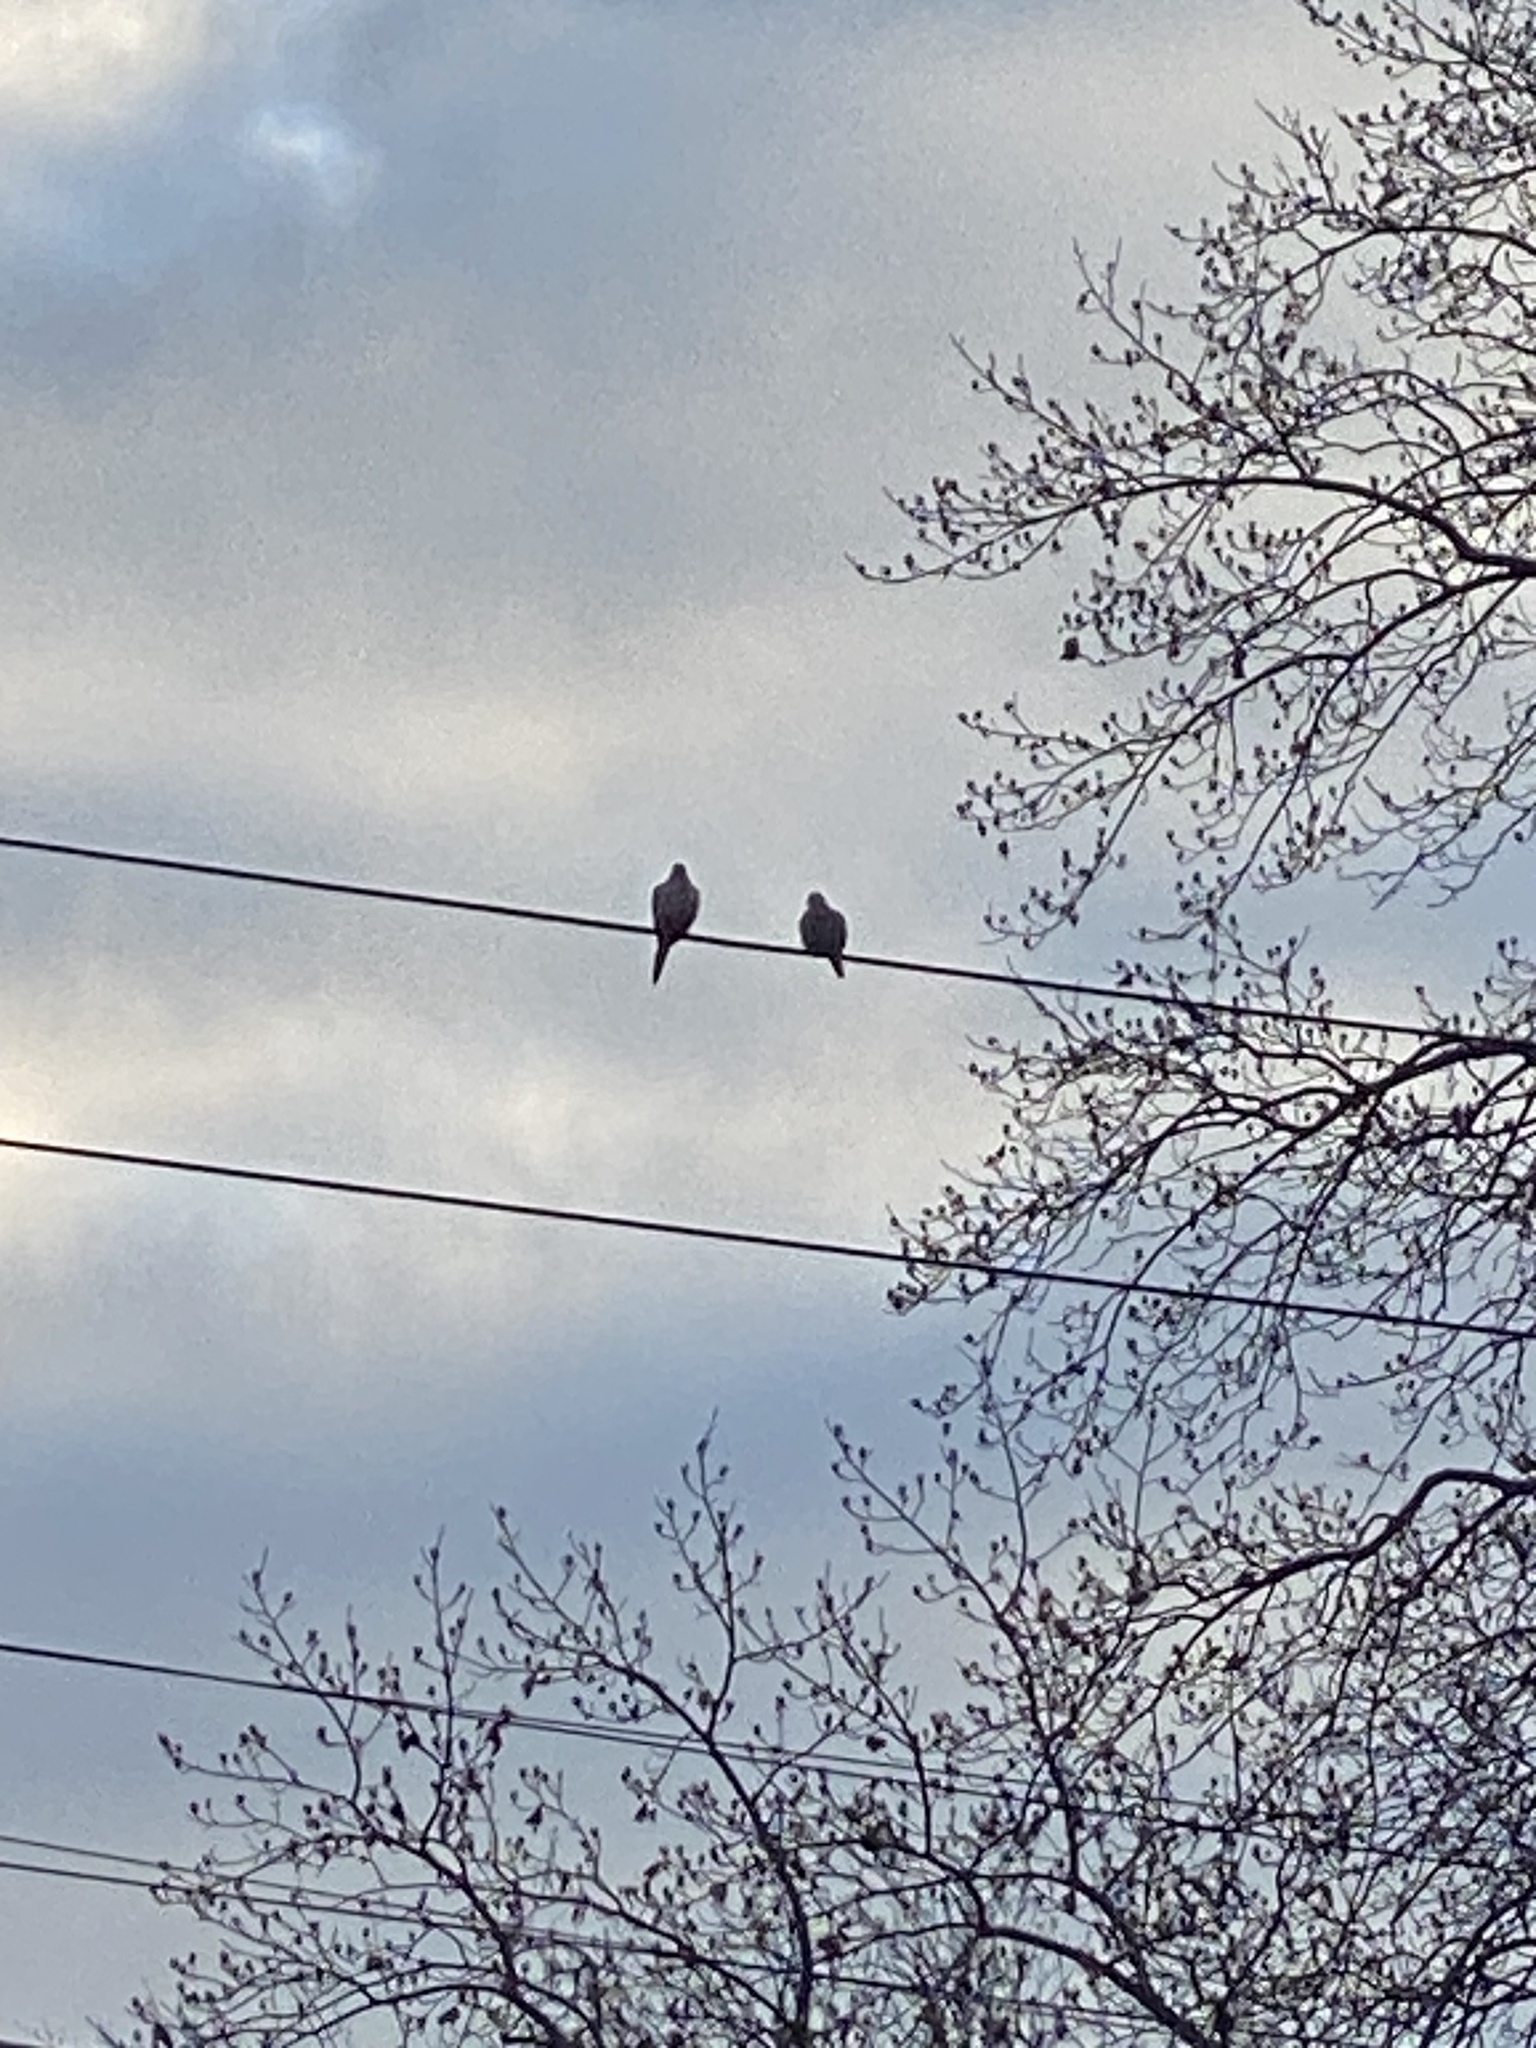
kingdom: Animalia
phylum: Chordata
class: Aves
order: Columbiformes
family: Columbidae
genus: Zenaida
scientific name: Zenaida macroura
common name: Mourning dove
